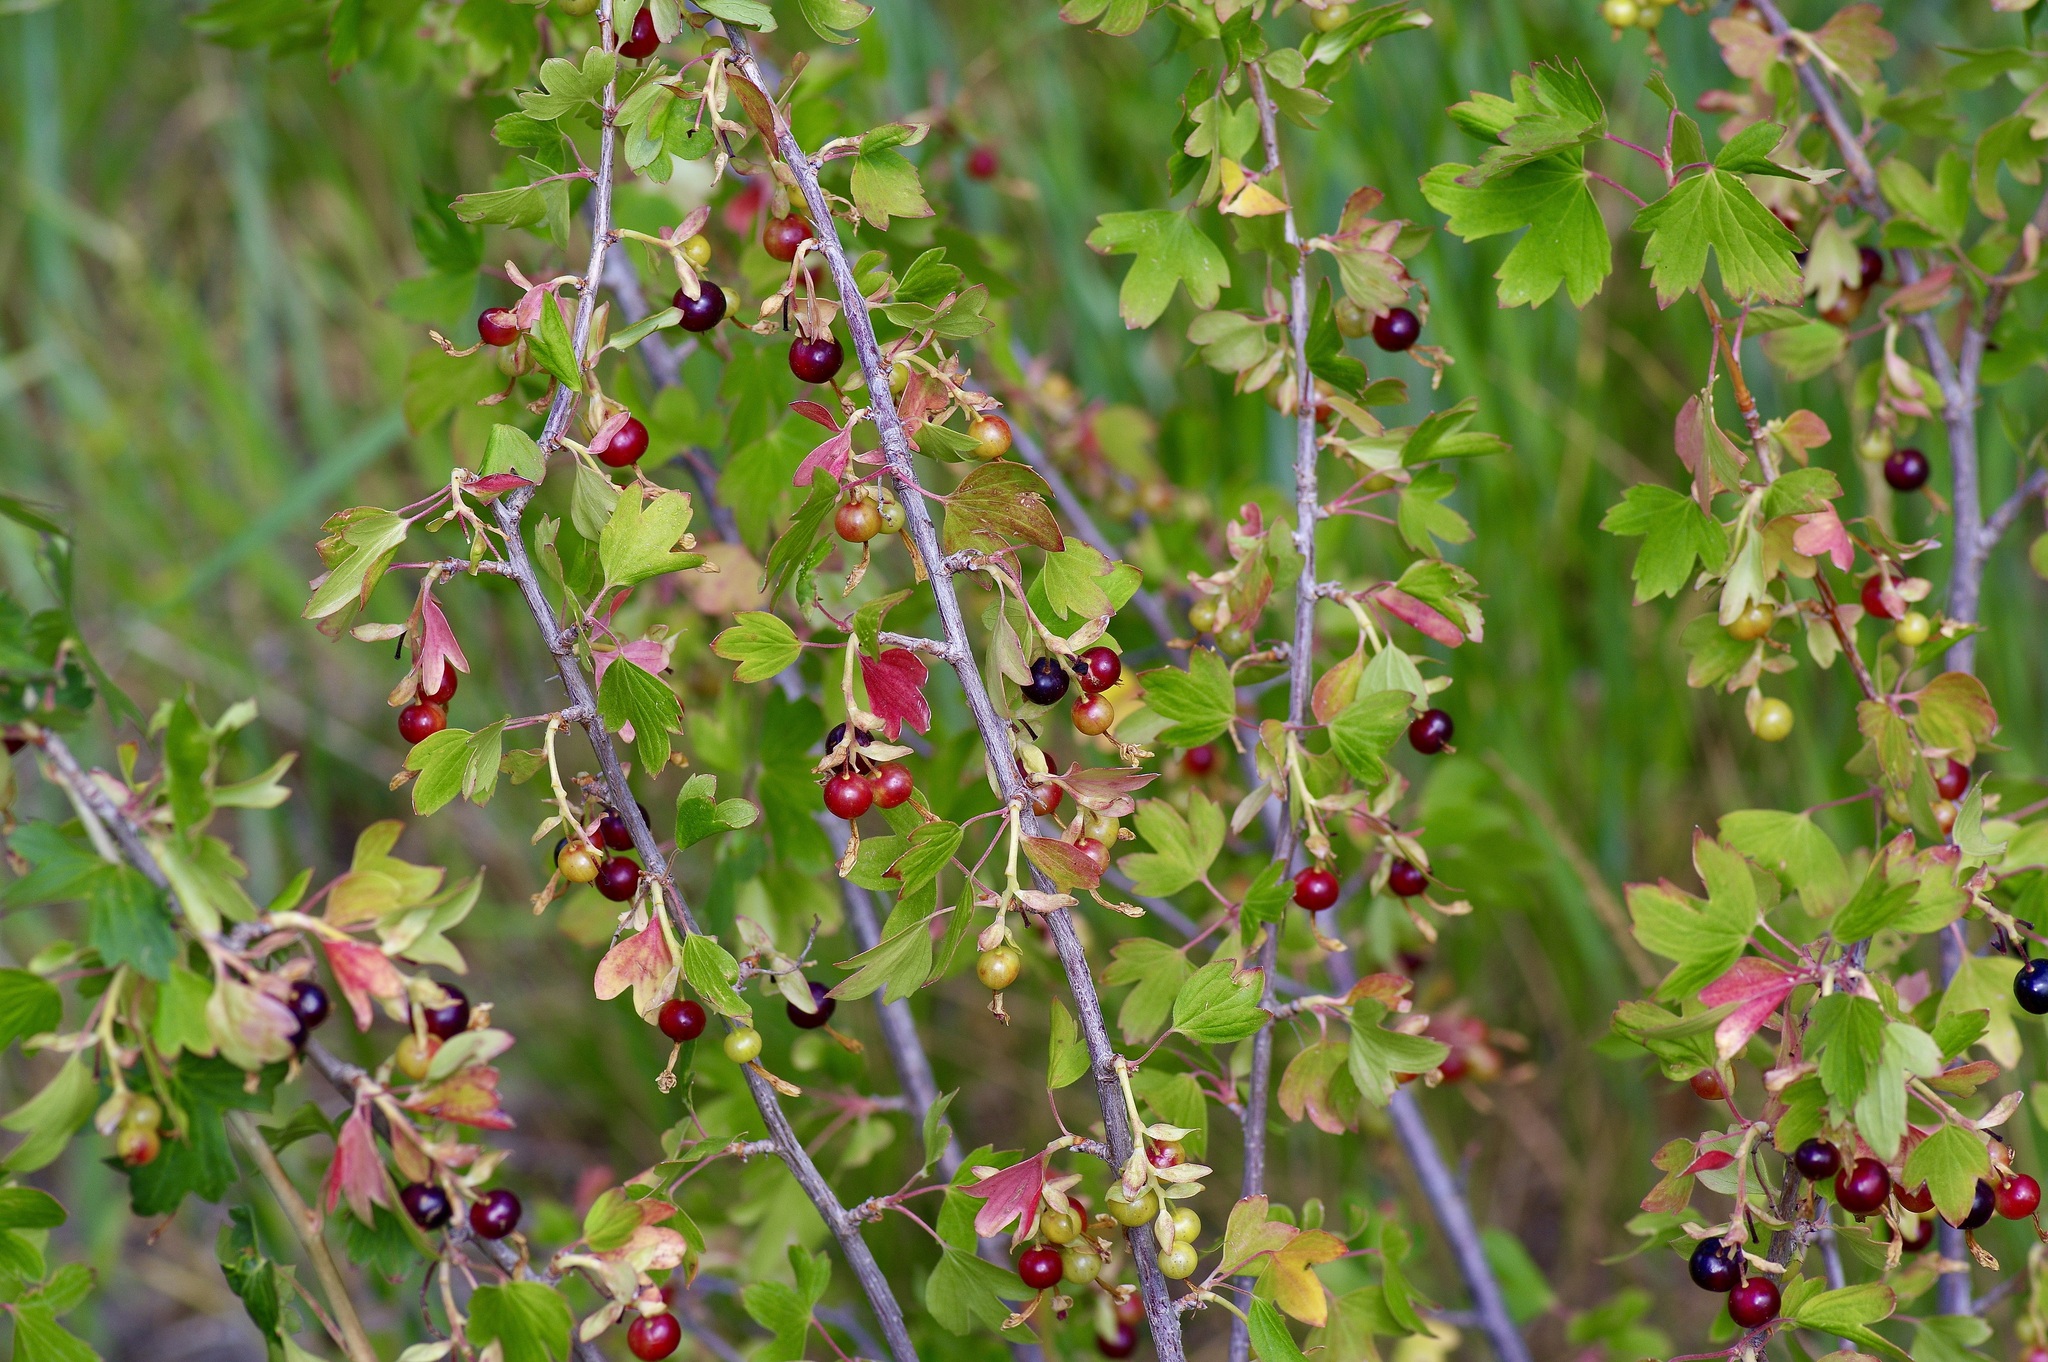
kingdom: Plantae
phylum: Tracheophyta
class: Magnoliopsida
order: Saxifragales
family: Grossulariaceae
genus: Ribes
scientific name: Ribes aureum
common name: Golden currant
